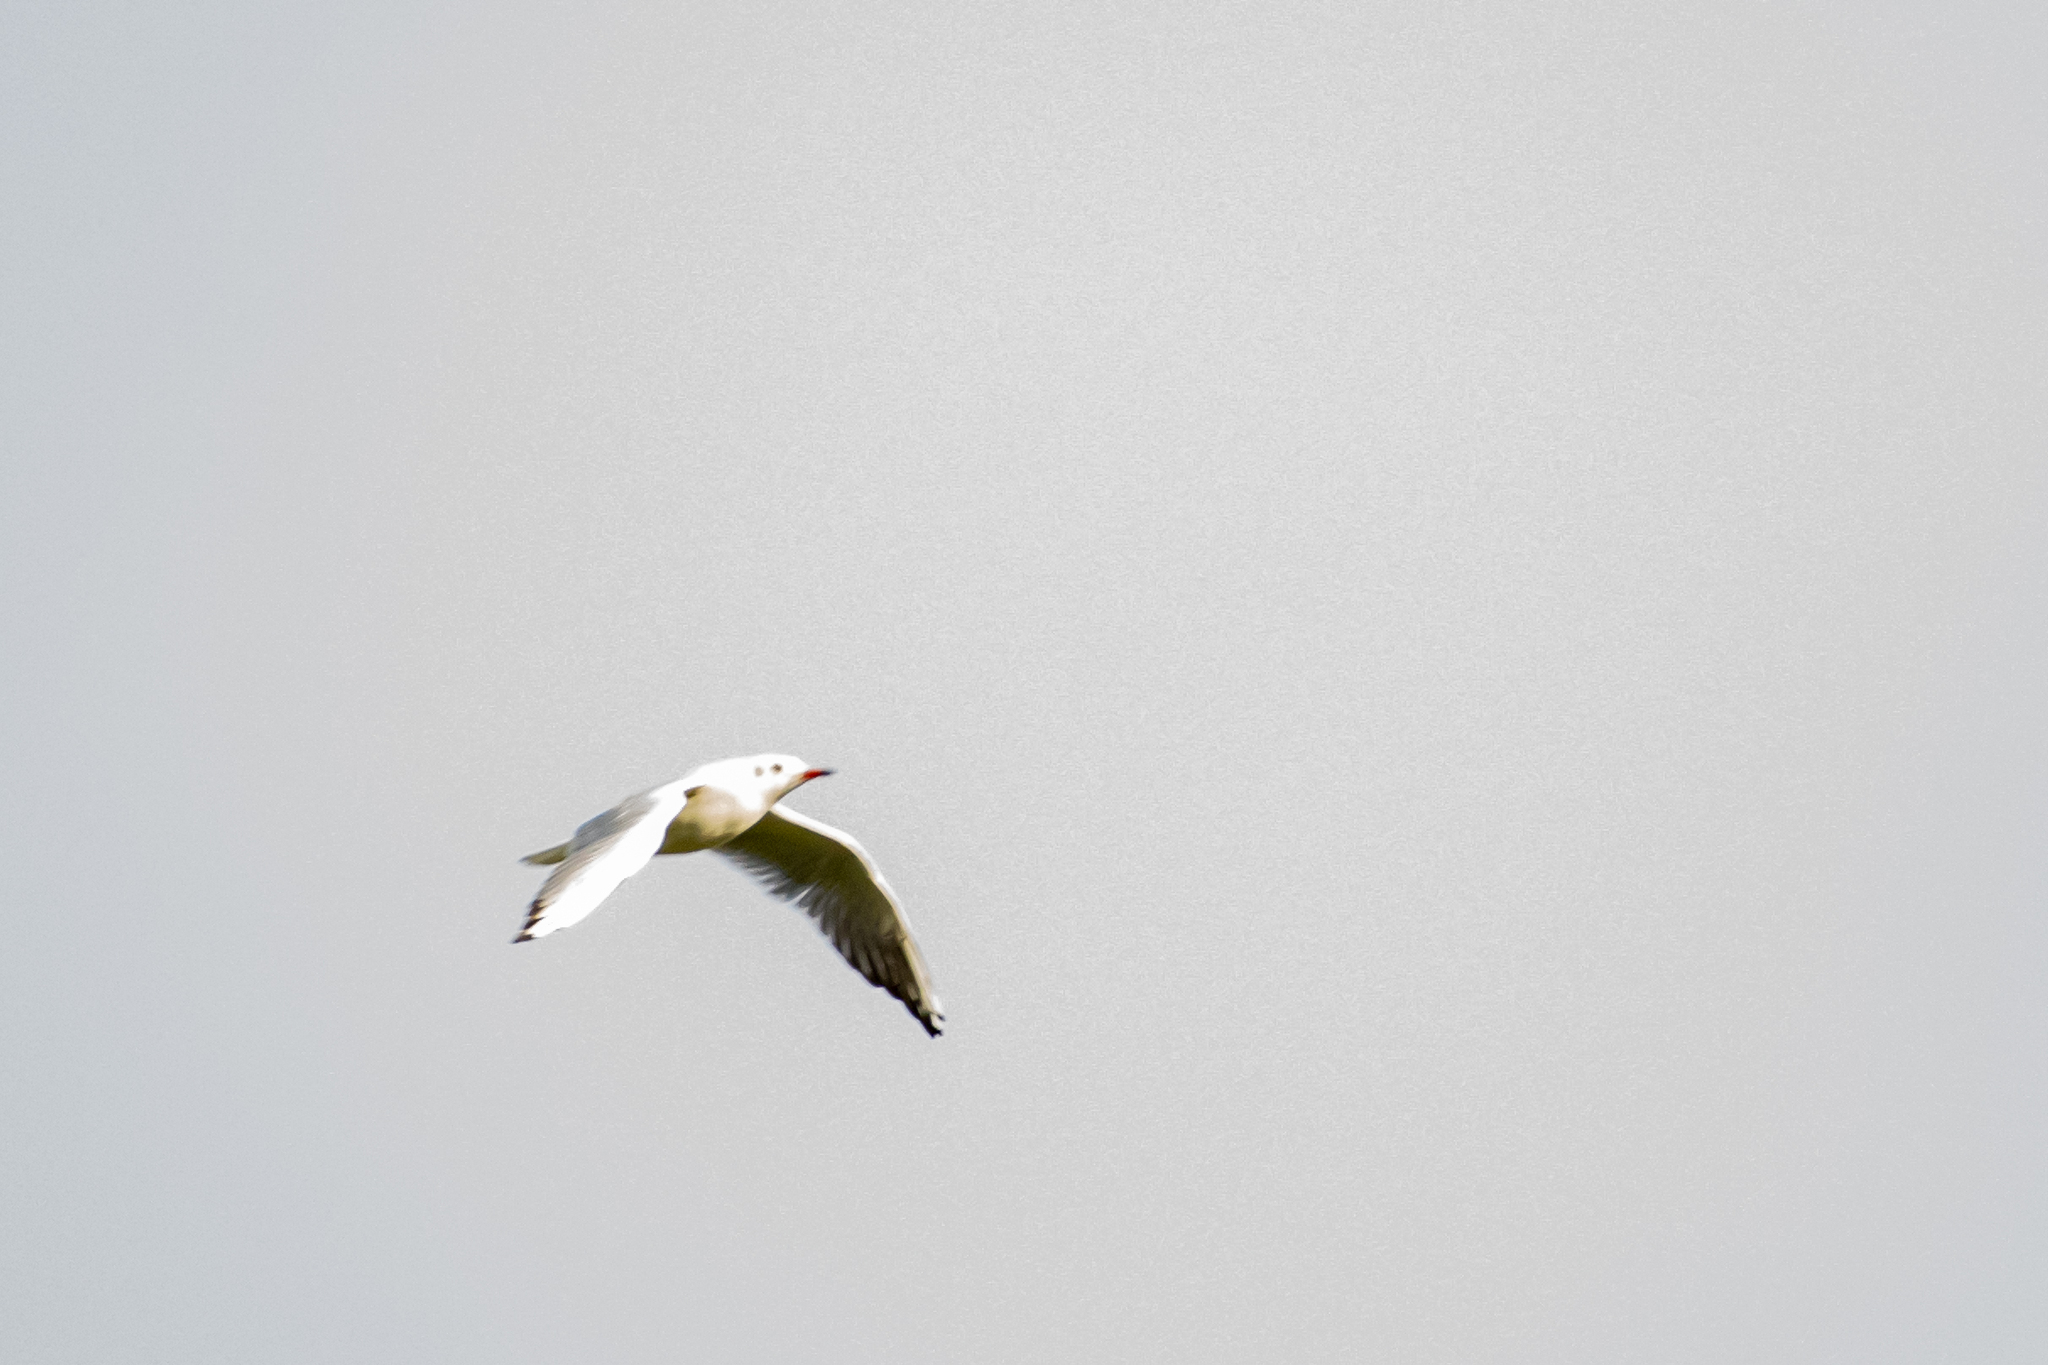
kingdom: Animalia
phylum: Chordata
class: Aves
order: Charadriiformes
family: Laridae
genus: Chroicocephalus
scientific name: Chroicocephalus ridibundus
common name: Black-headed gull
